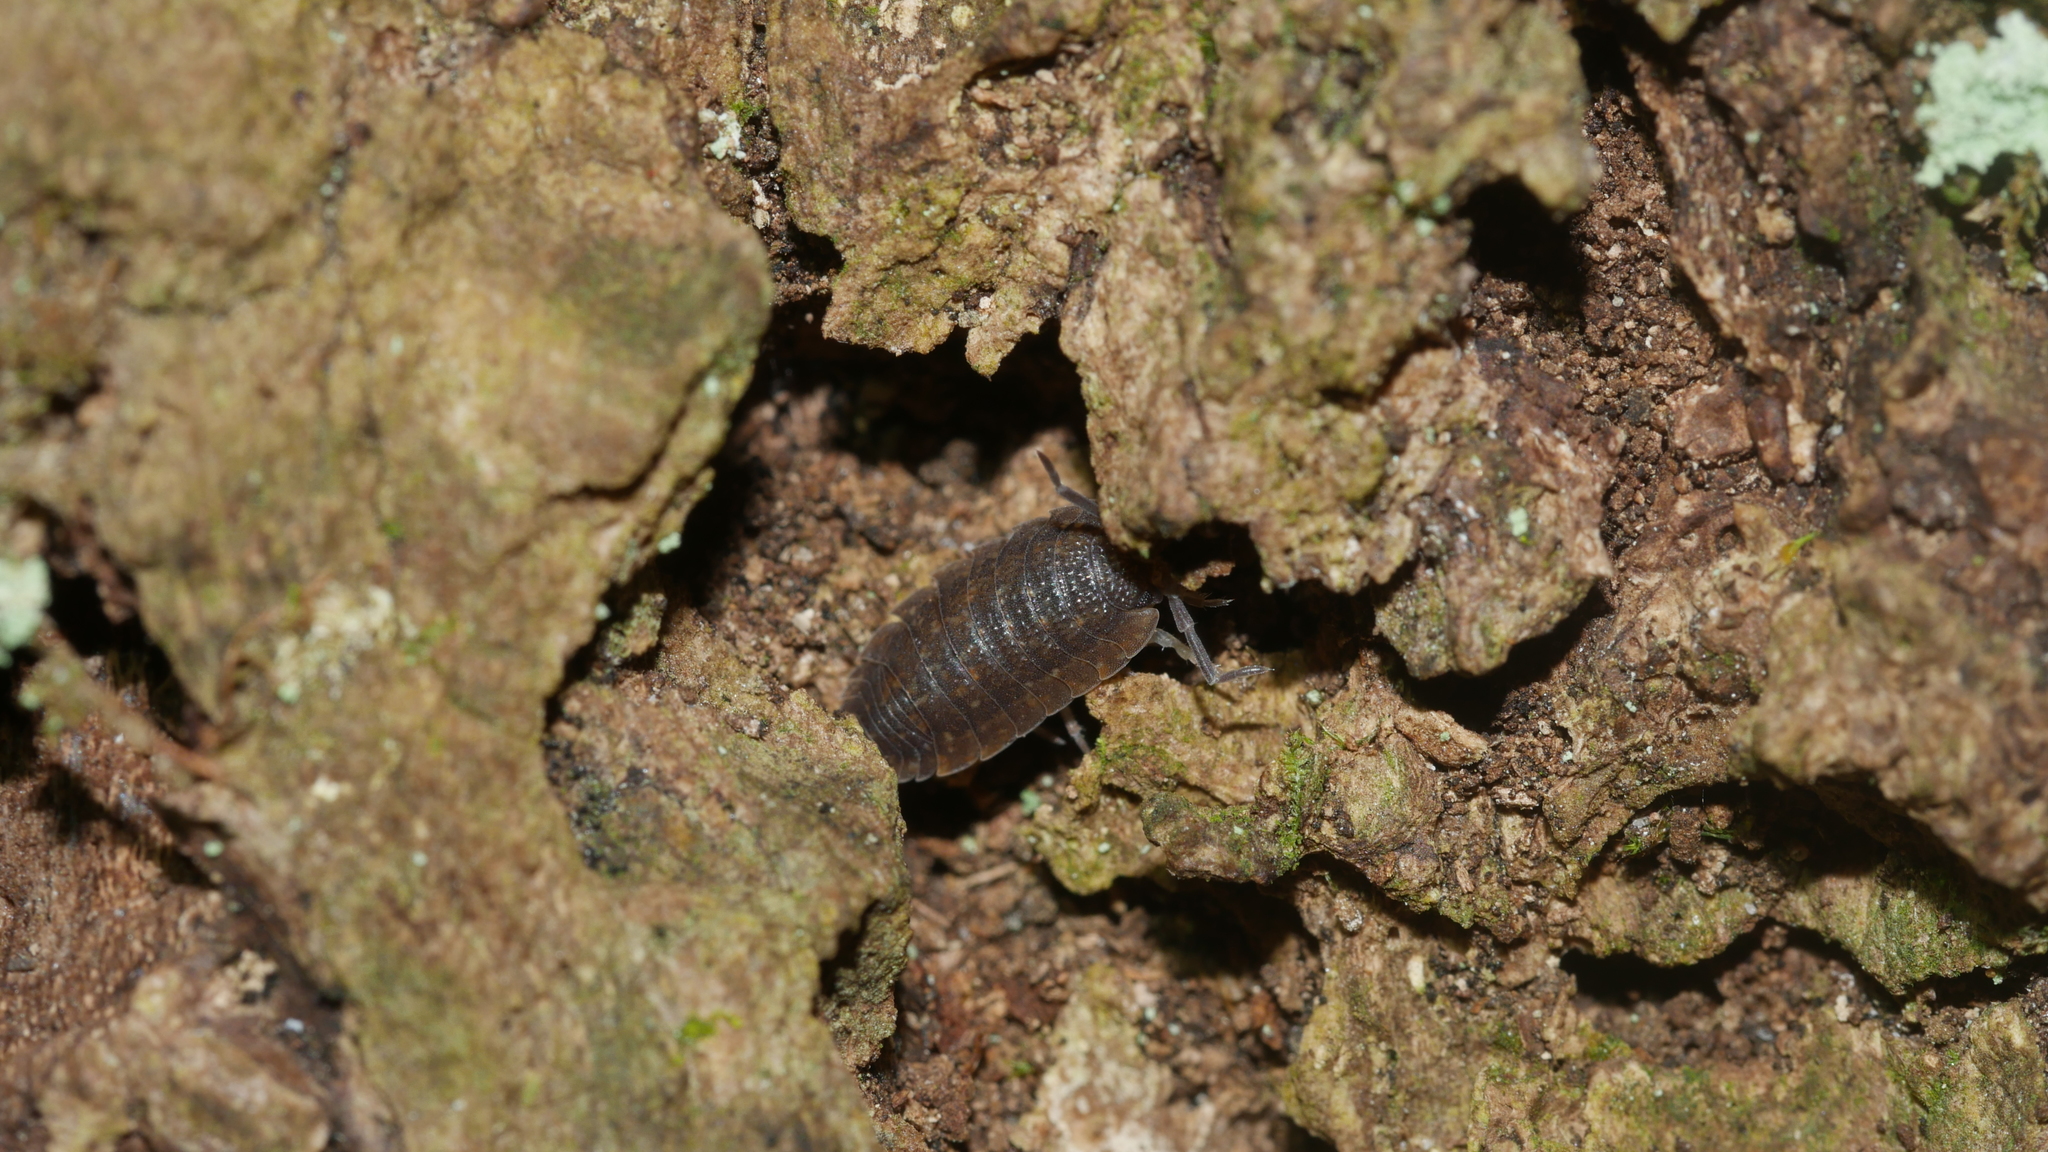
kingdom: Animalia
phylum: Arthropoda
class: Malacostraca
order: Isopoda
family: Porcellionidae
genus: Porcellio
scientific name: Porcellio scaber
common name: Common rough woodlouse
